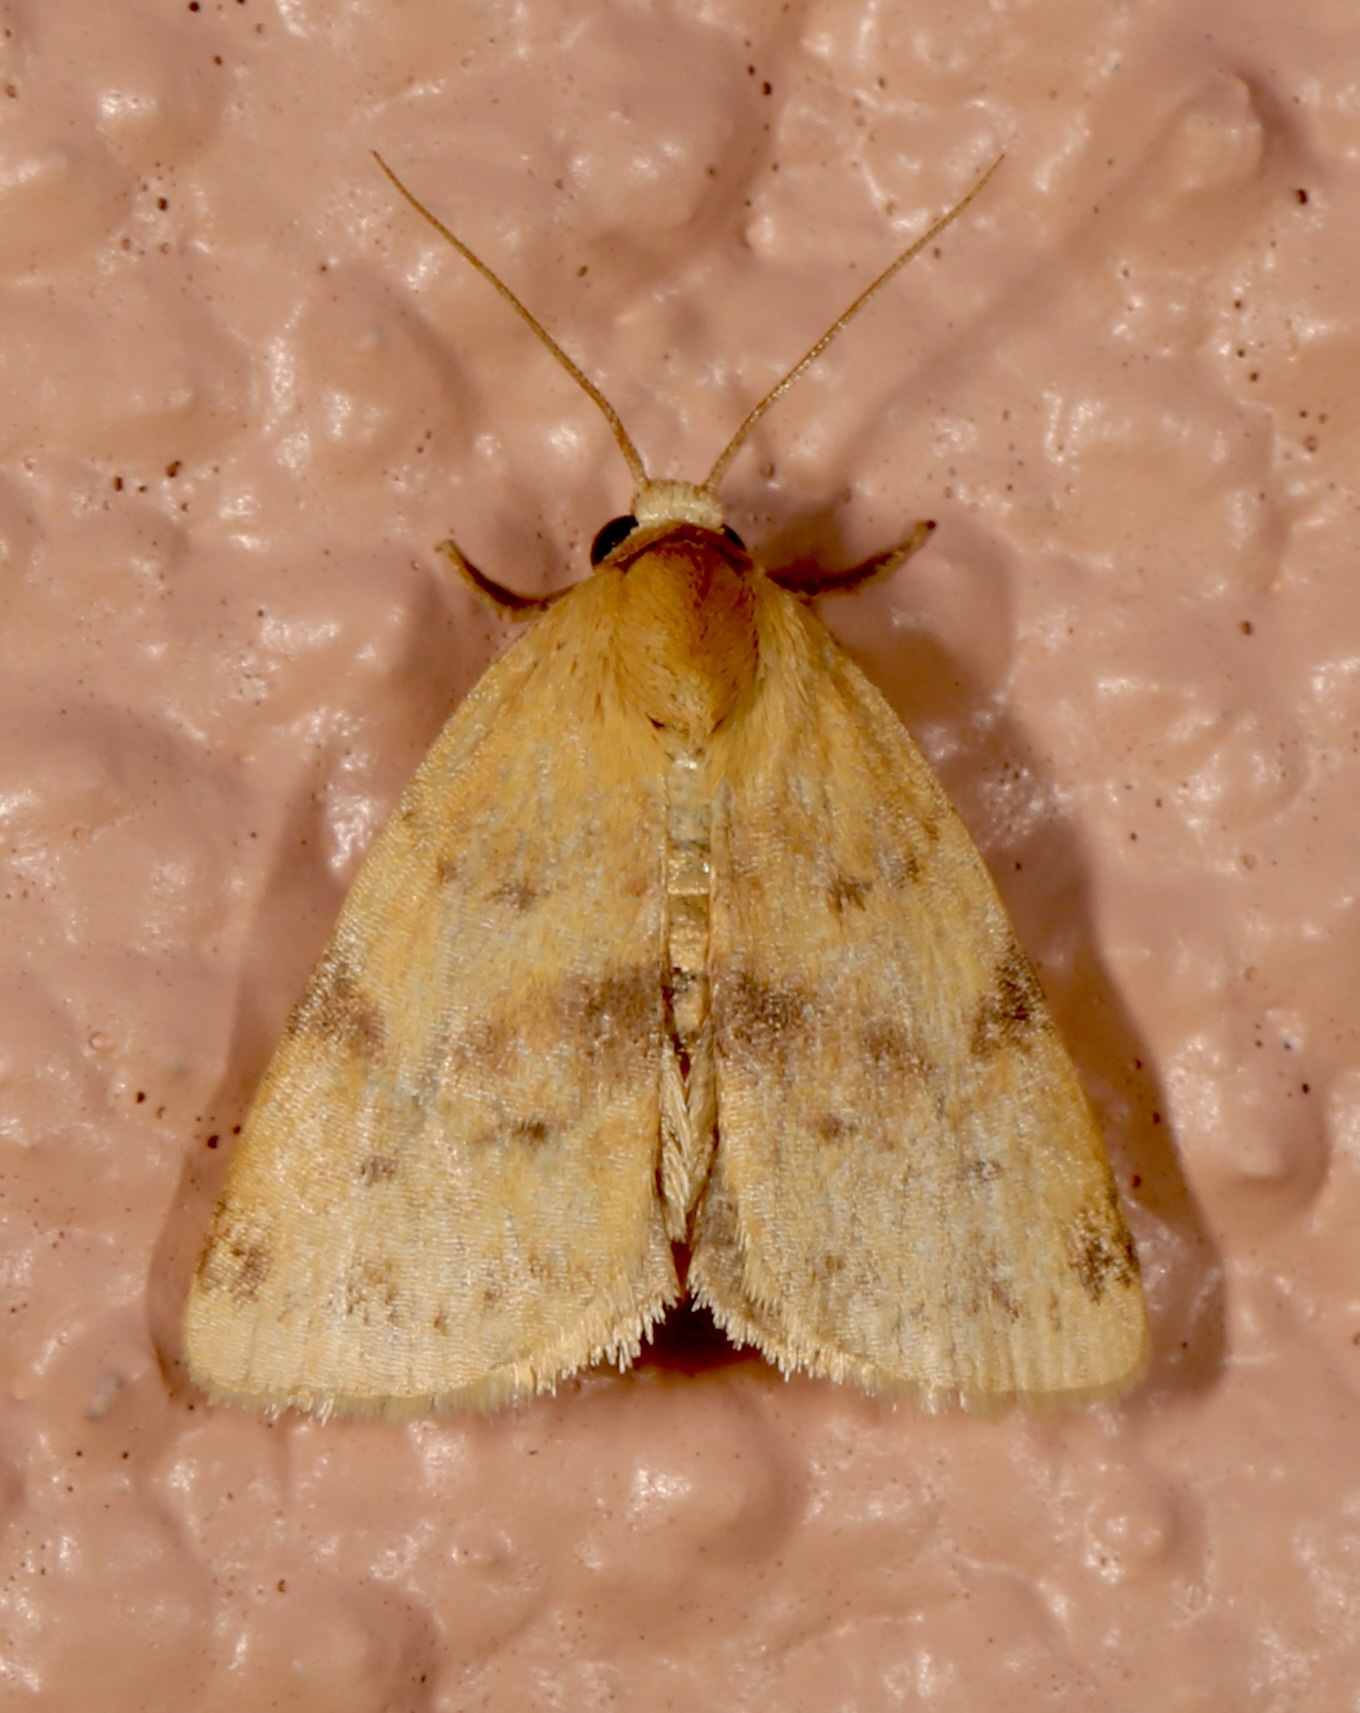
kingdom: Animalia
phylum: Arthropoda
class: Insecta
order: Lepidoptera
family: Noctuidae
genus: Azenia
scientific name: Azenia procida
